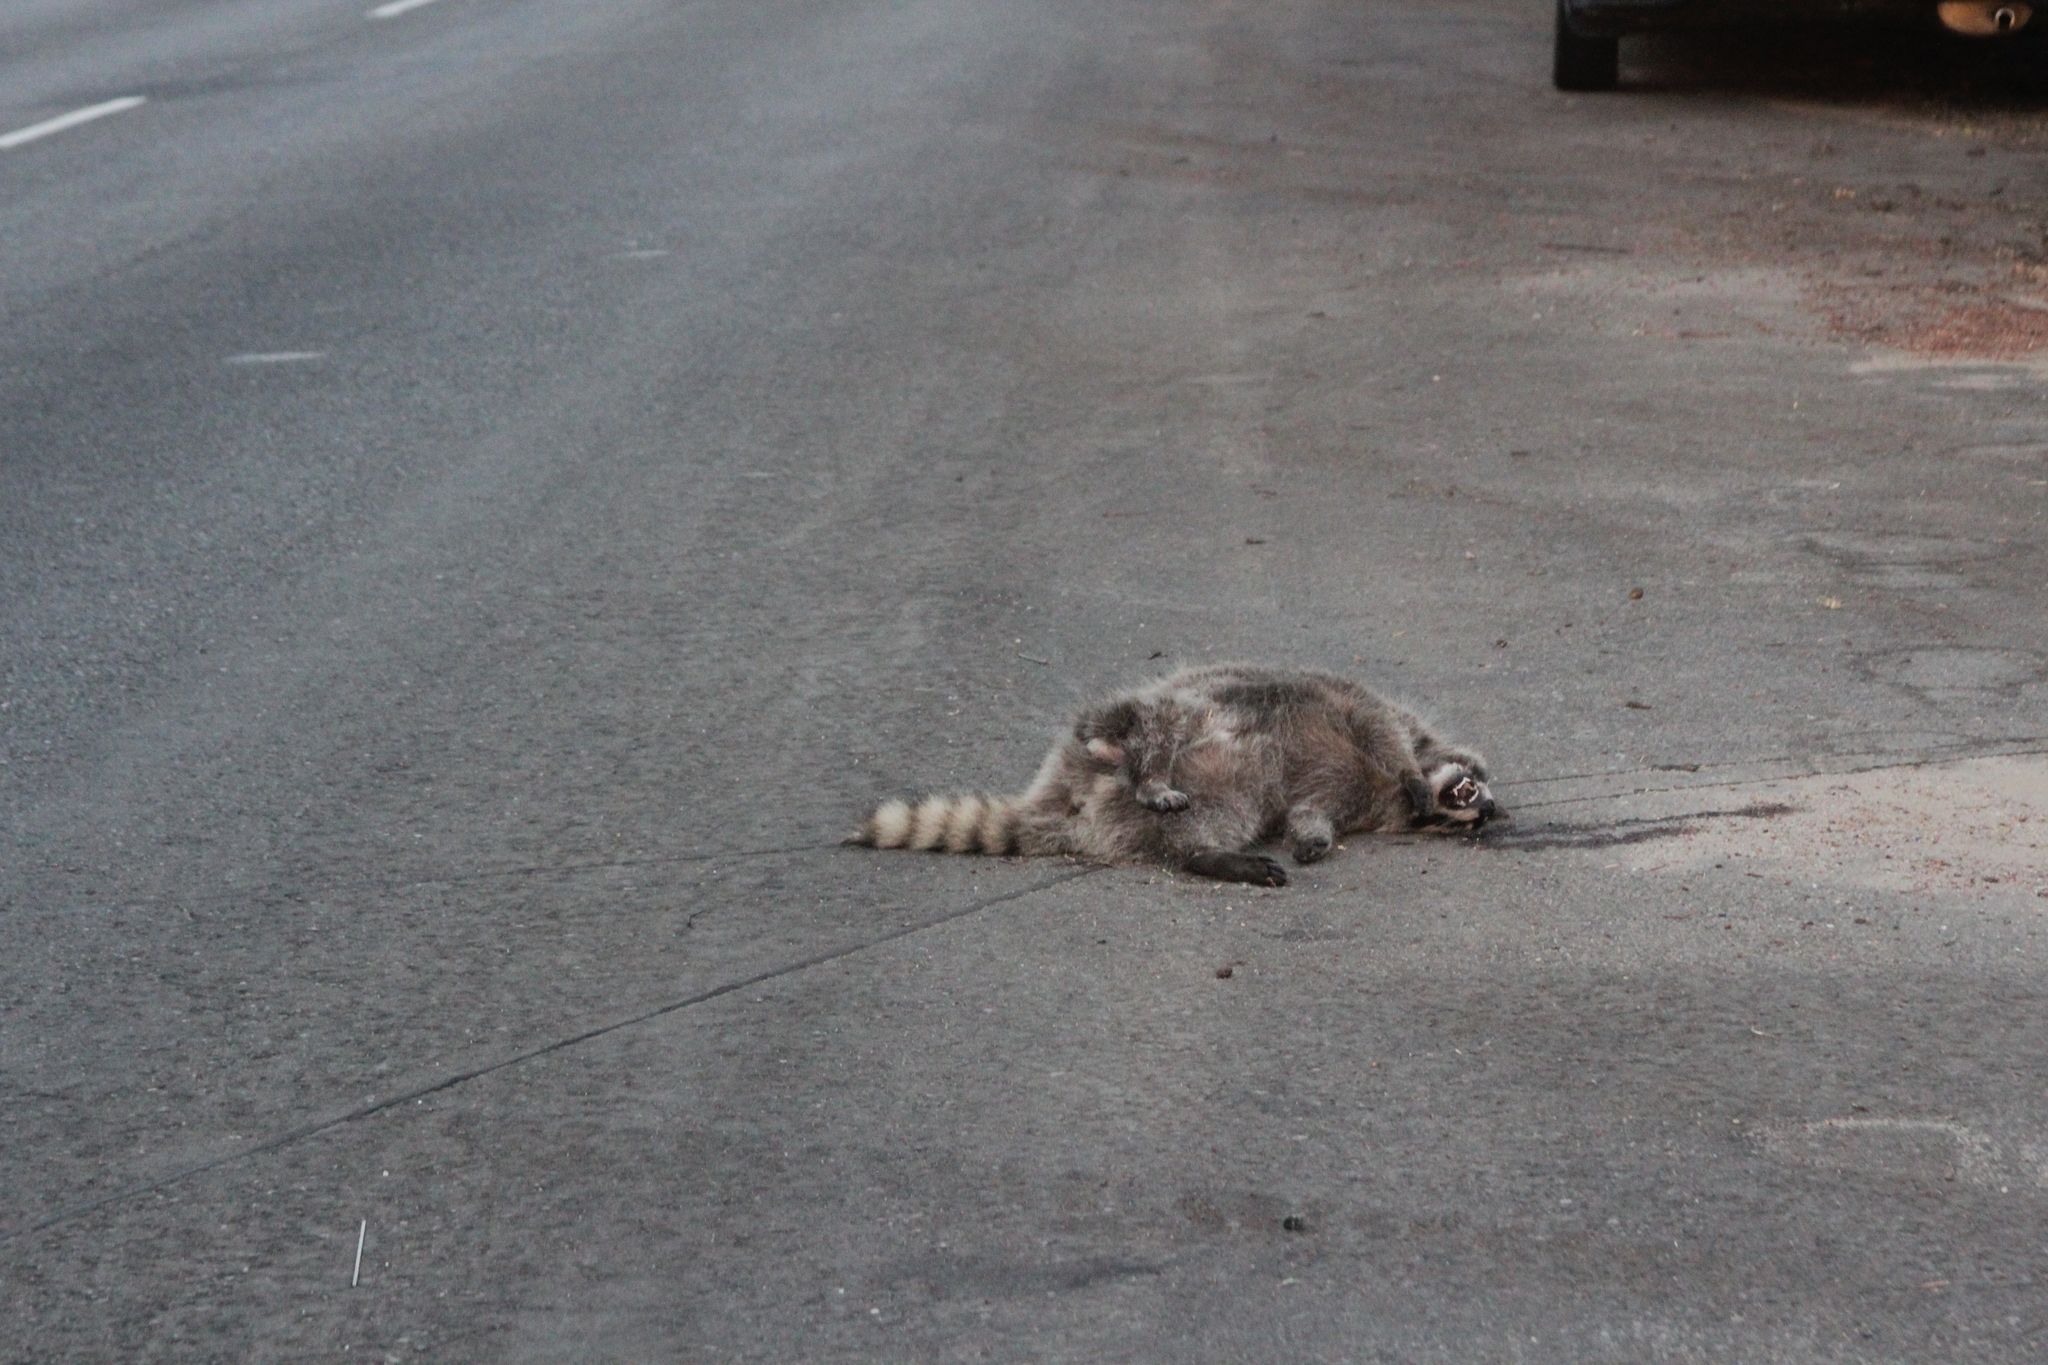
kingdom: Animalia
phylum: Chordata
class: Mammalia
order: Carnivora
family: Procyonidae
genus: Procyon
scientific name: Procyon lotor
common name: Raccoon
